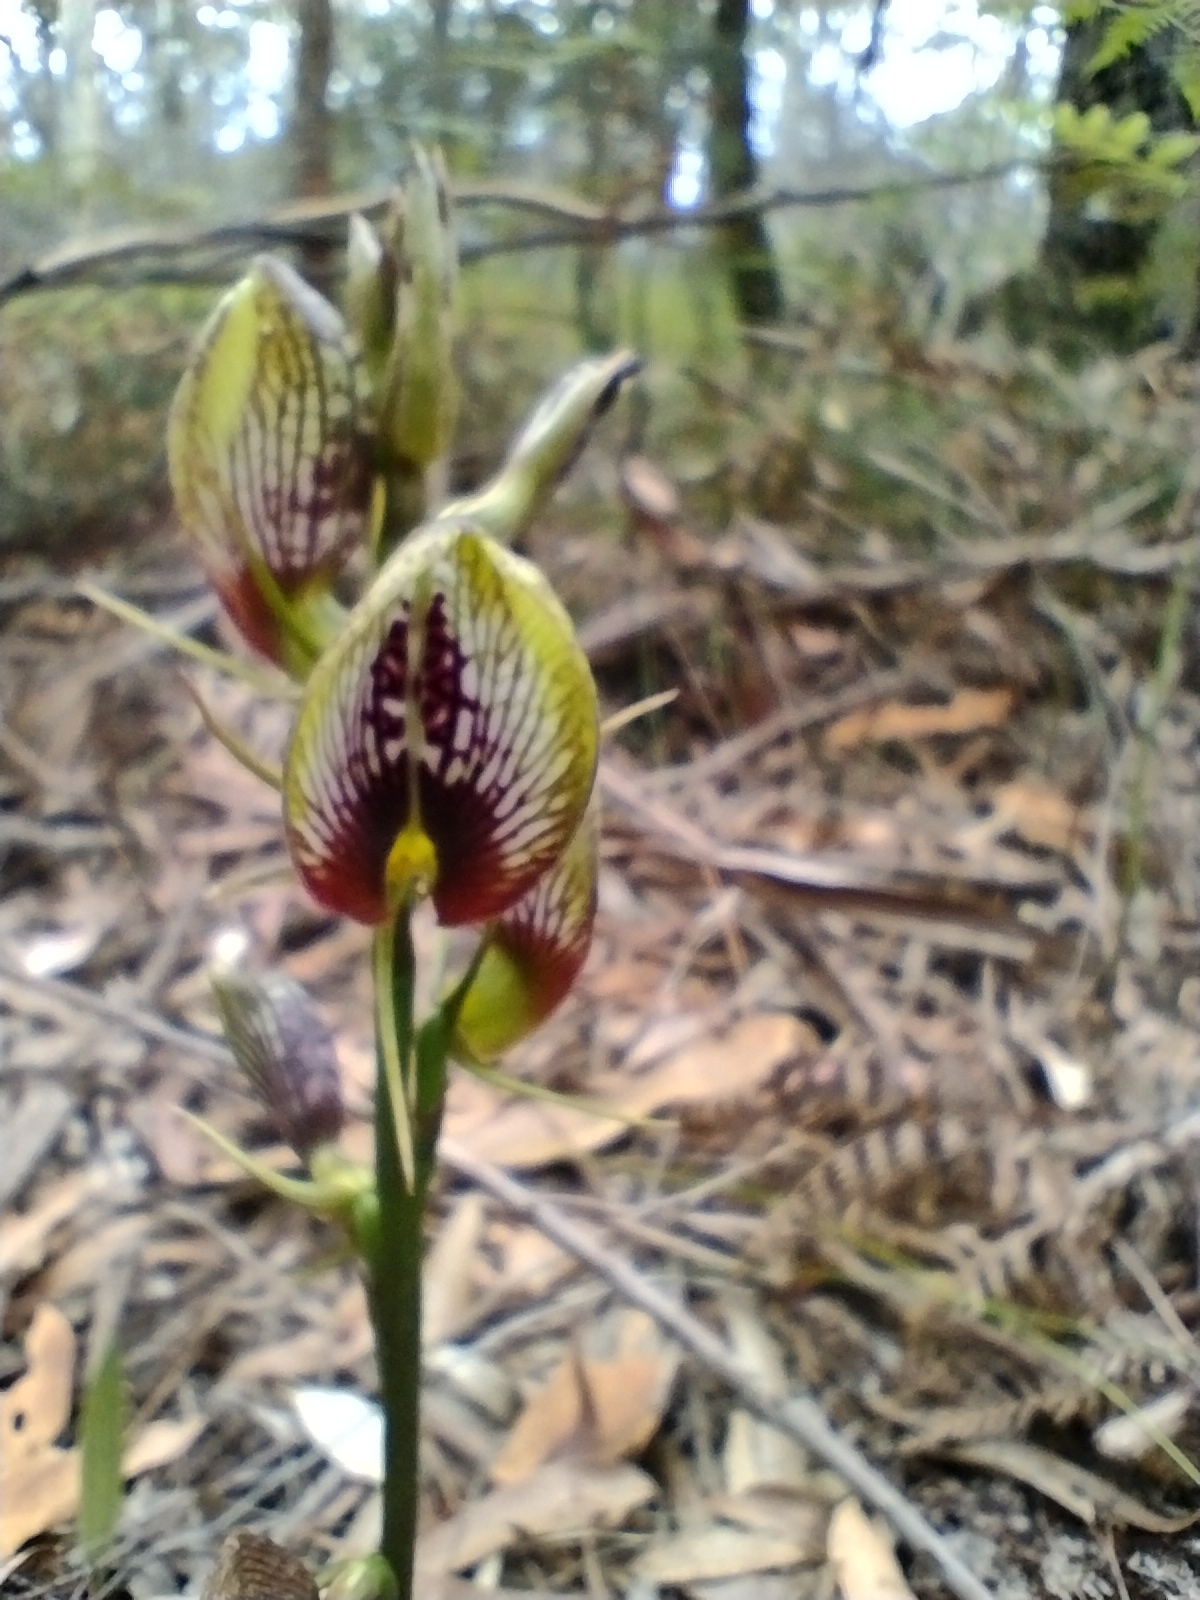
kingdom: Plantae
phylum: Tracheophyta
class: Liliopsida
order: Asparagales
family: Orchidaceae
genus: Cryptostylis
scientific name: Cryptostylis erecta
